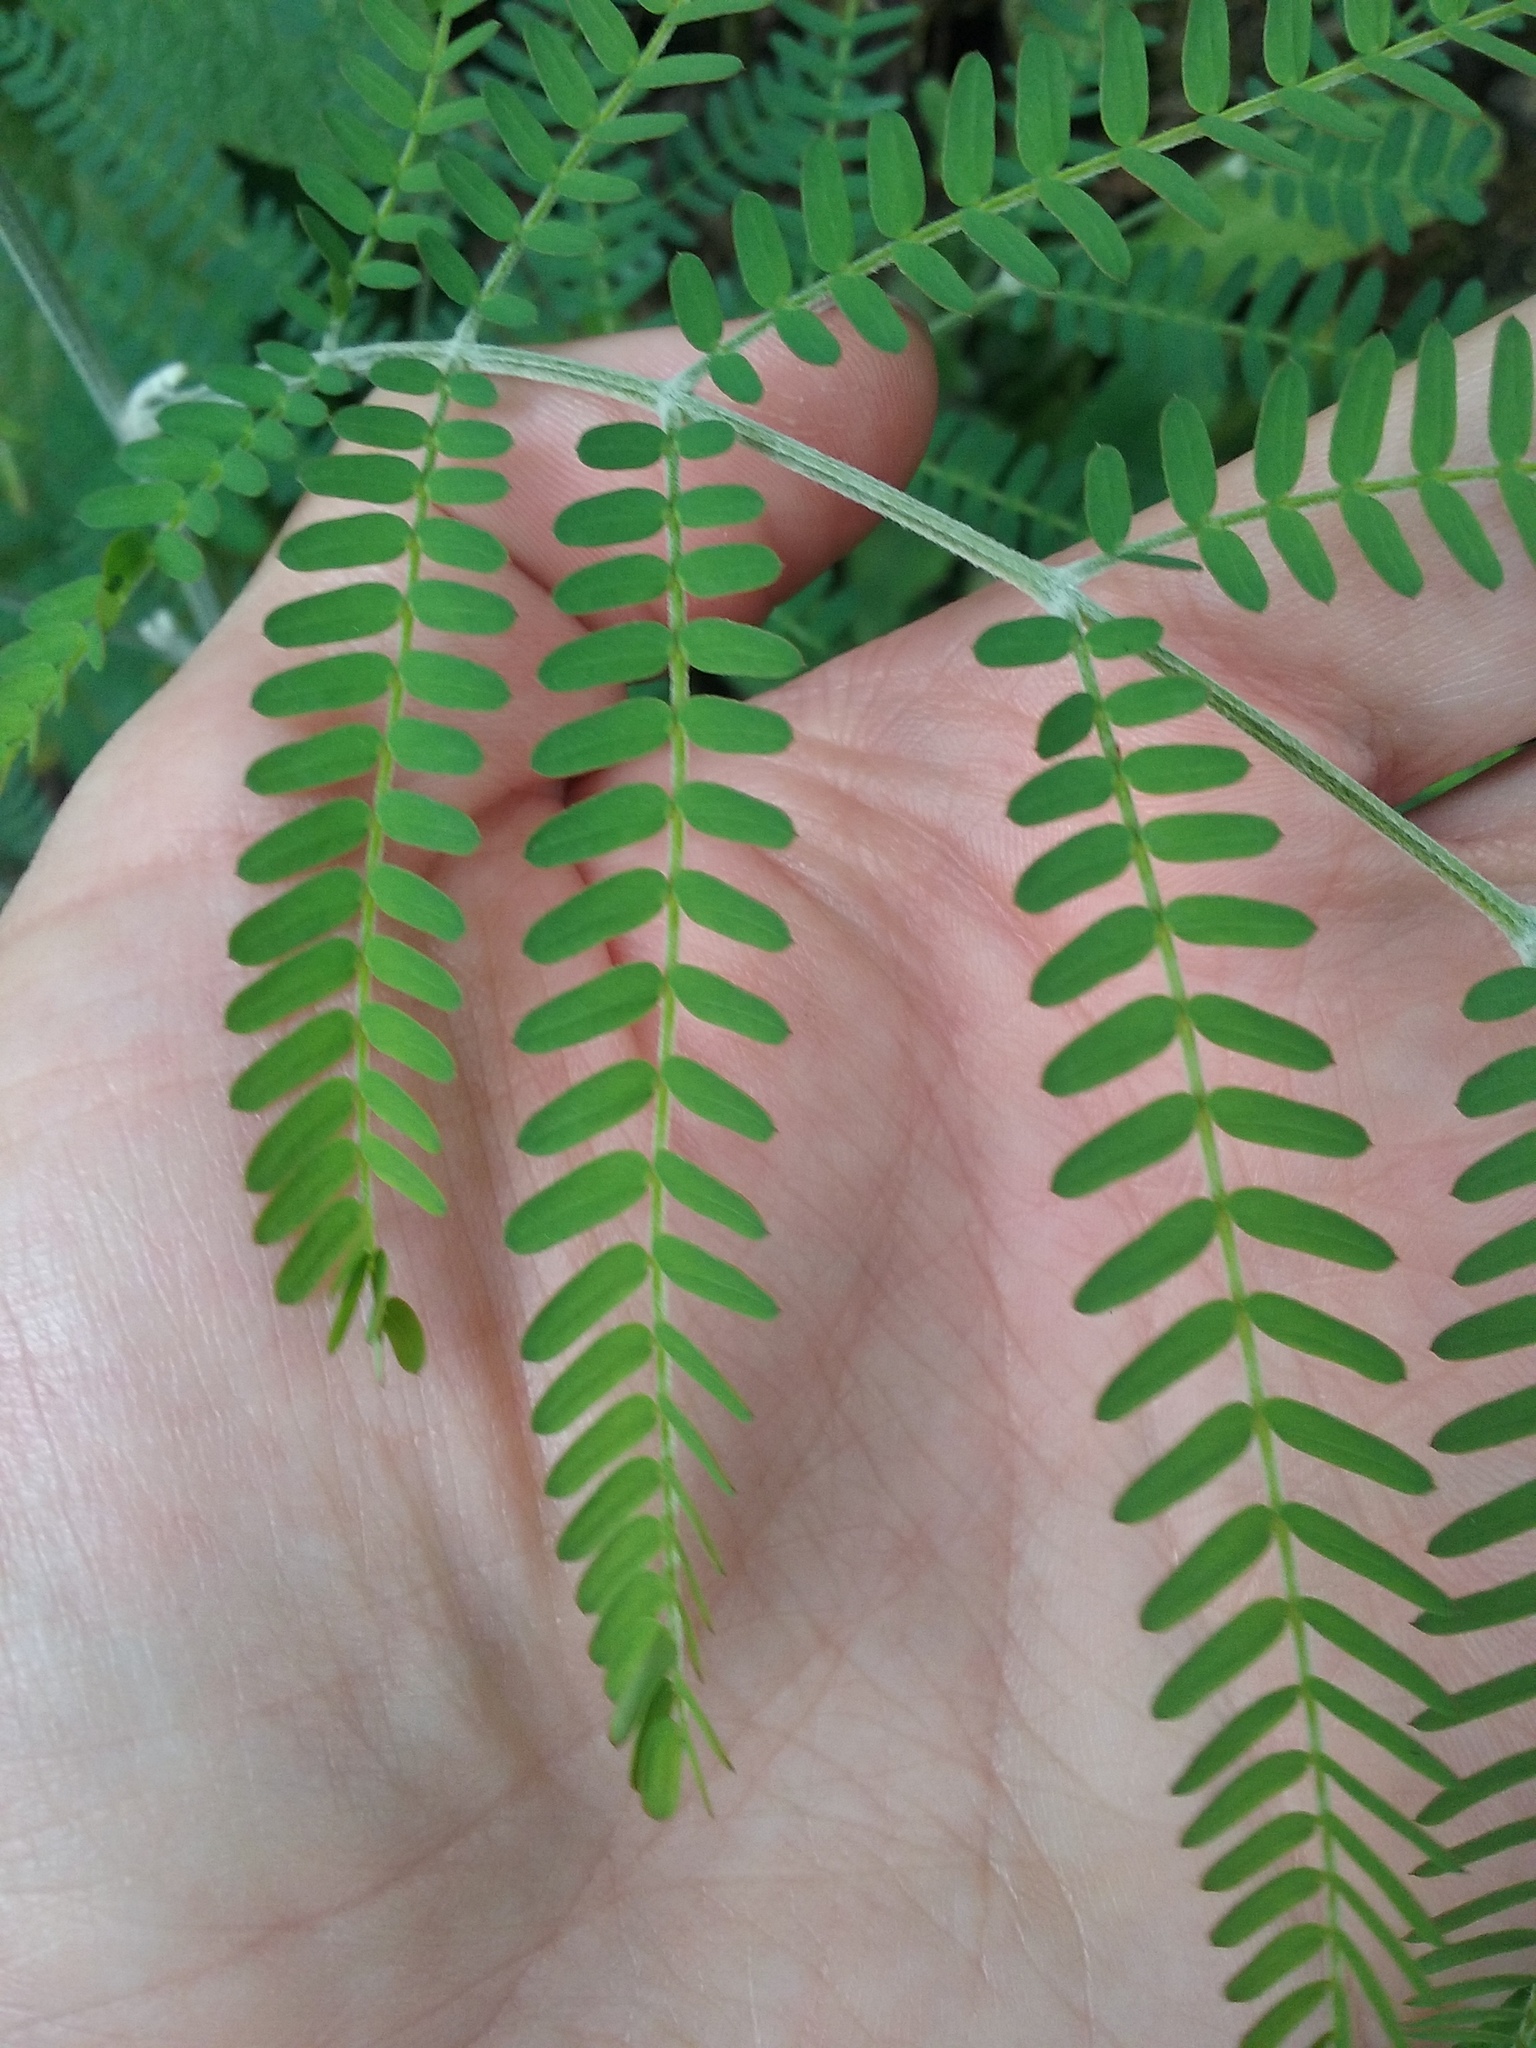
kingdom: Plantae
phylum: Tracheophyta
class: Magnoliopsida
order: Fabales
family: Fabaceae
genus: Acacia
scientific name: Acacia melanoxylon
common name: Blackwood
